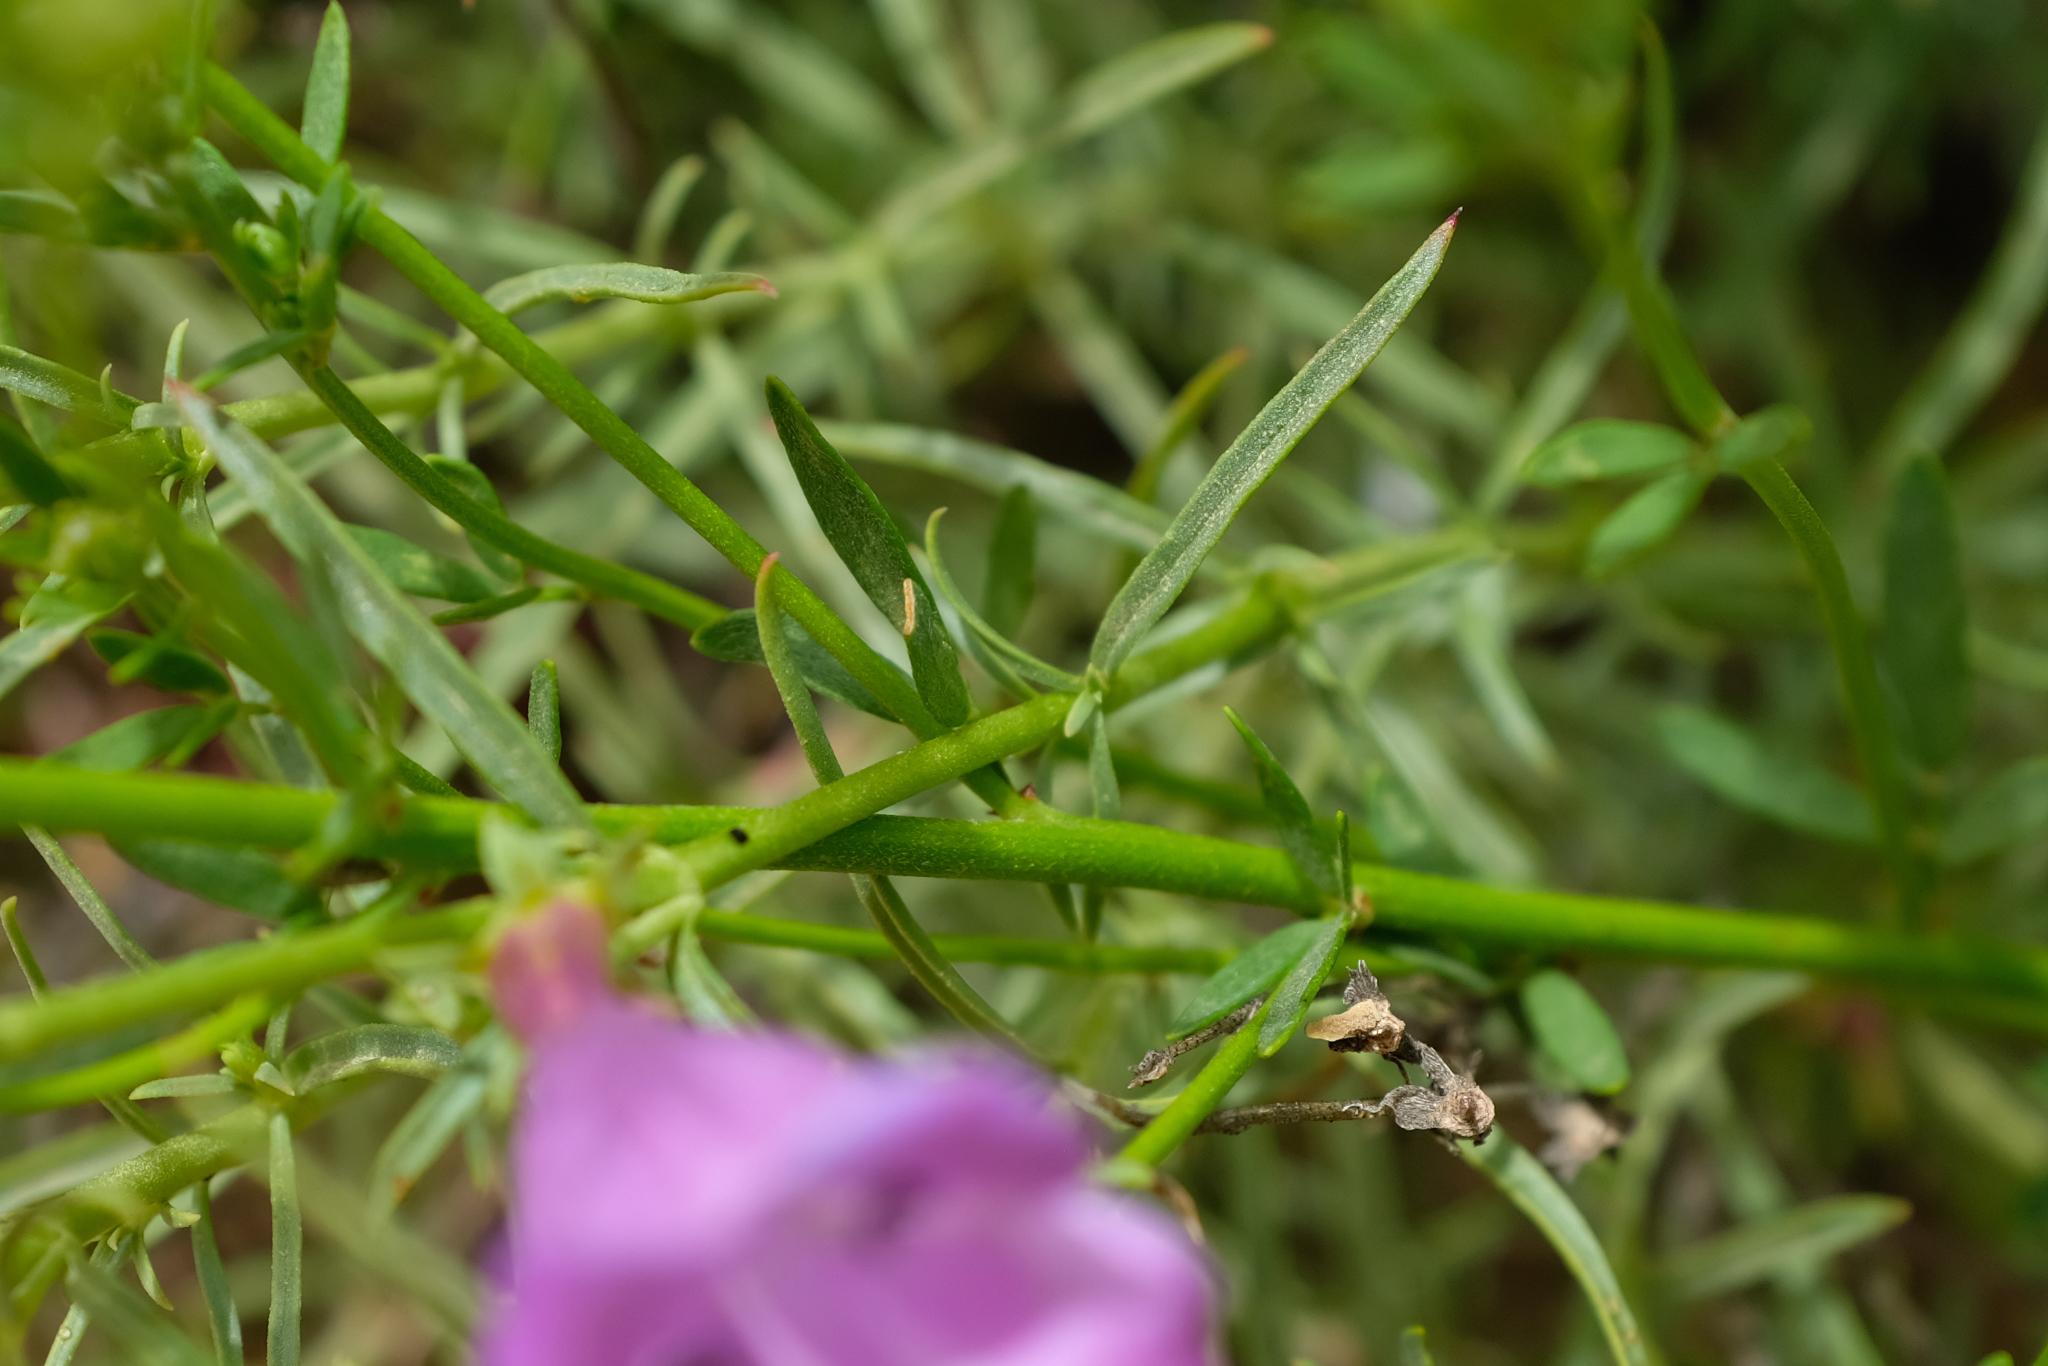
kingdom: Plantae
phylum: Tracheophyta
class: Magnoliopsida
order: Lamiales
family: Plantaginaceae
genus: Penstemon
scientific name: Penstemon heterophyllus
